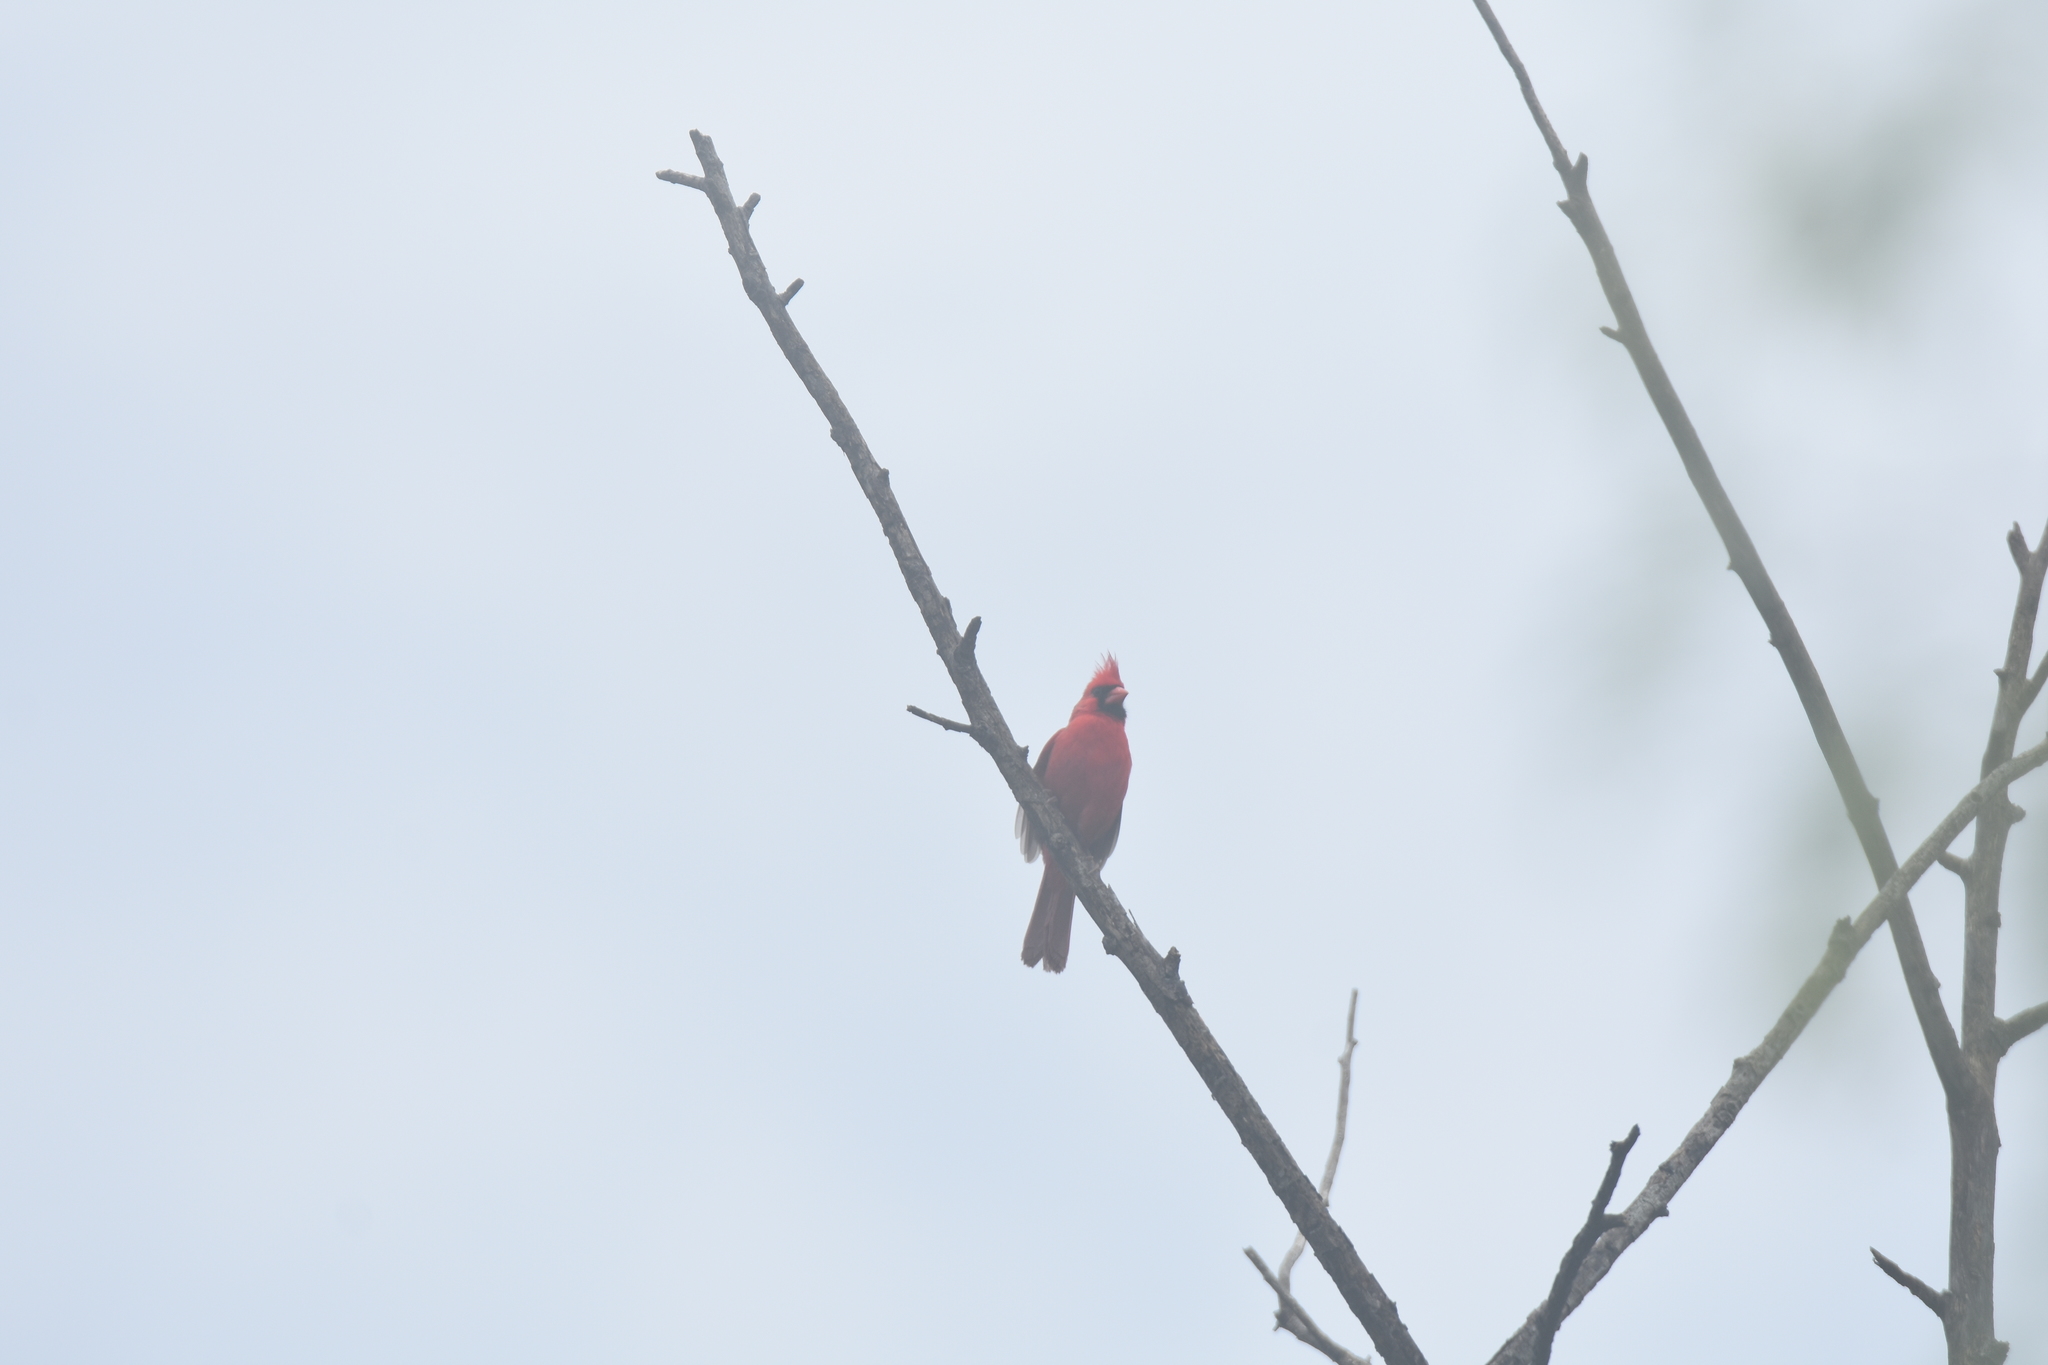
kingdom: Animalia
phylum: Chordata
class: Aves
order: Passeriformes
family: Cardinalidae
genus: Cardinalis
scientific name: Cardinalis cardinalis
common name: Northern cardinal
